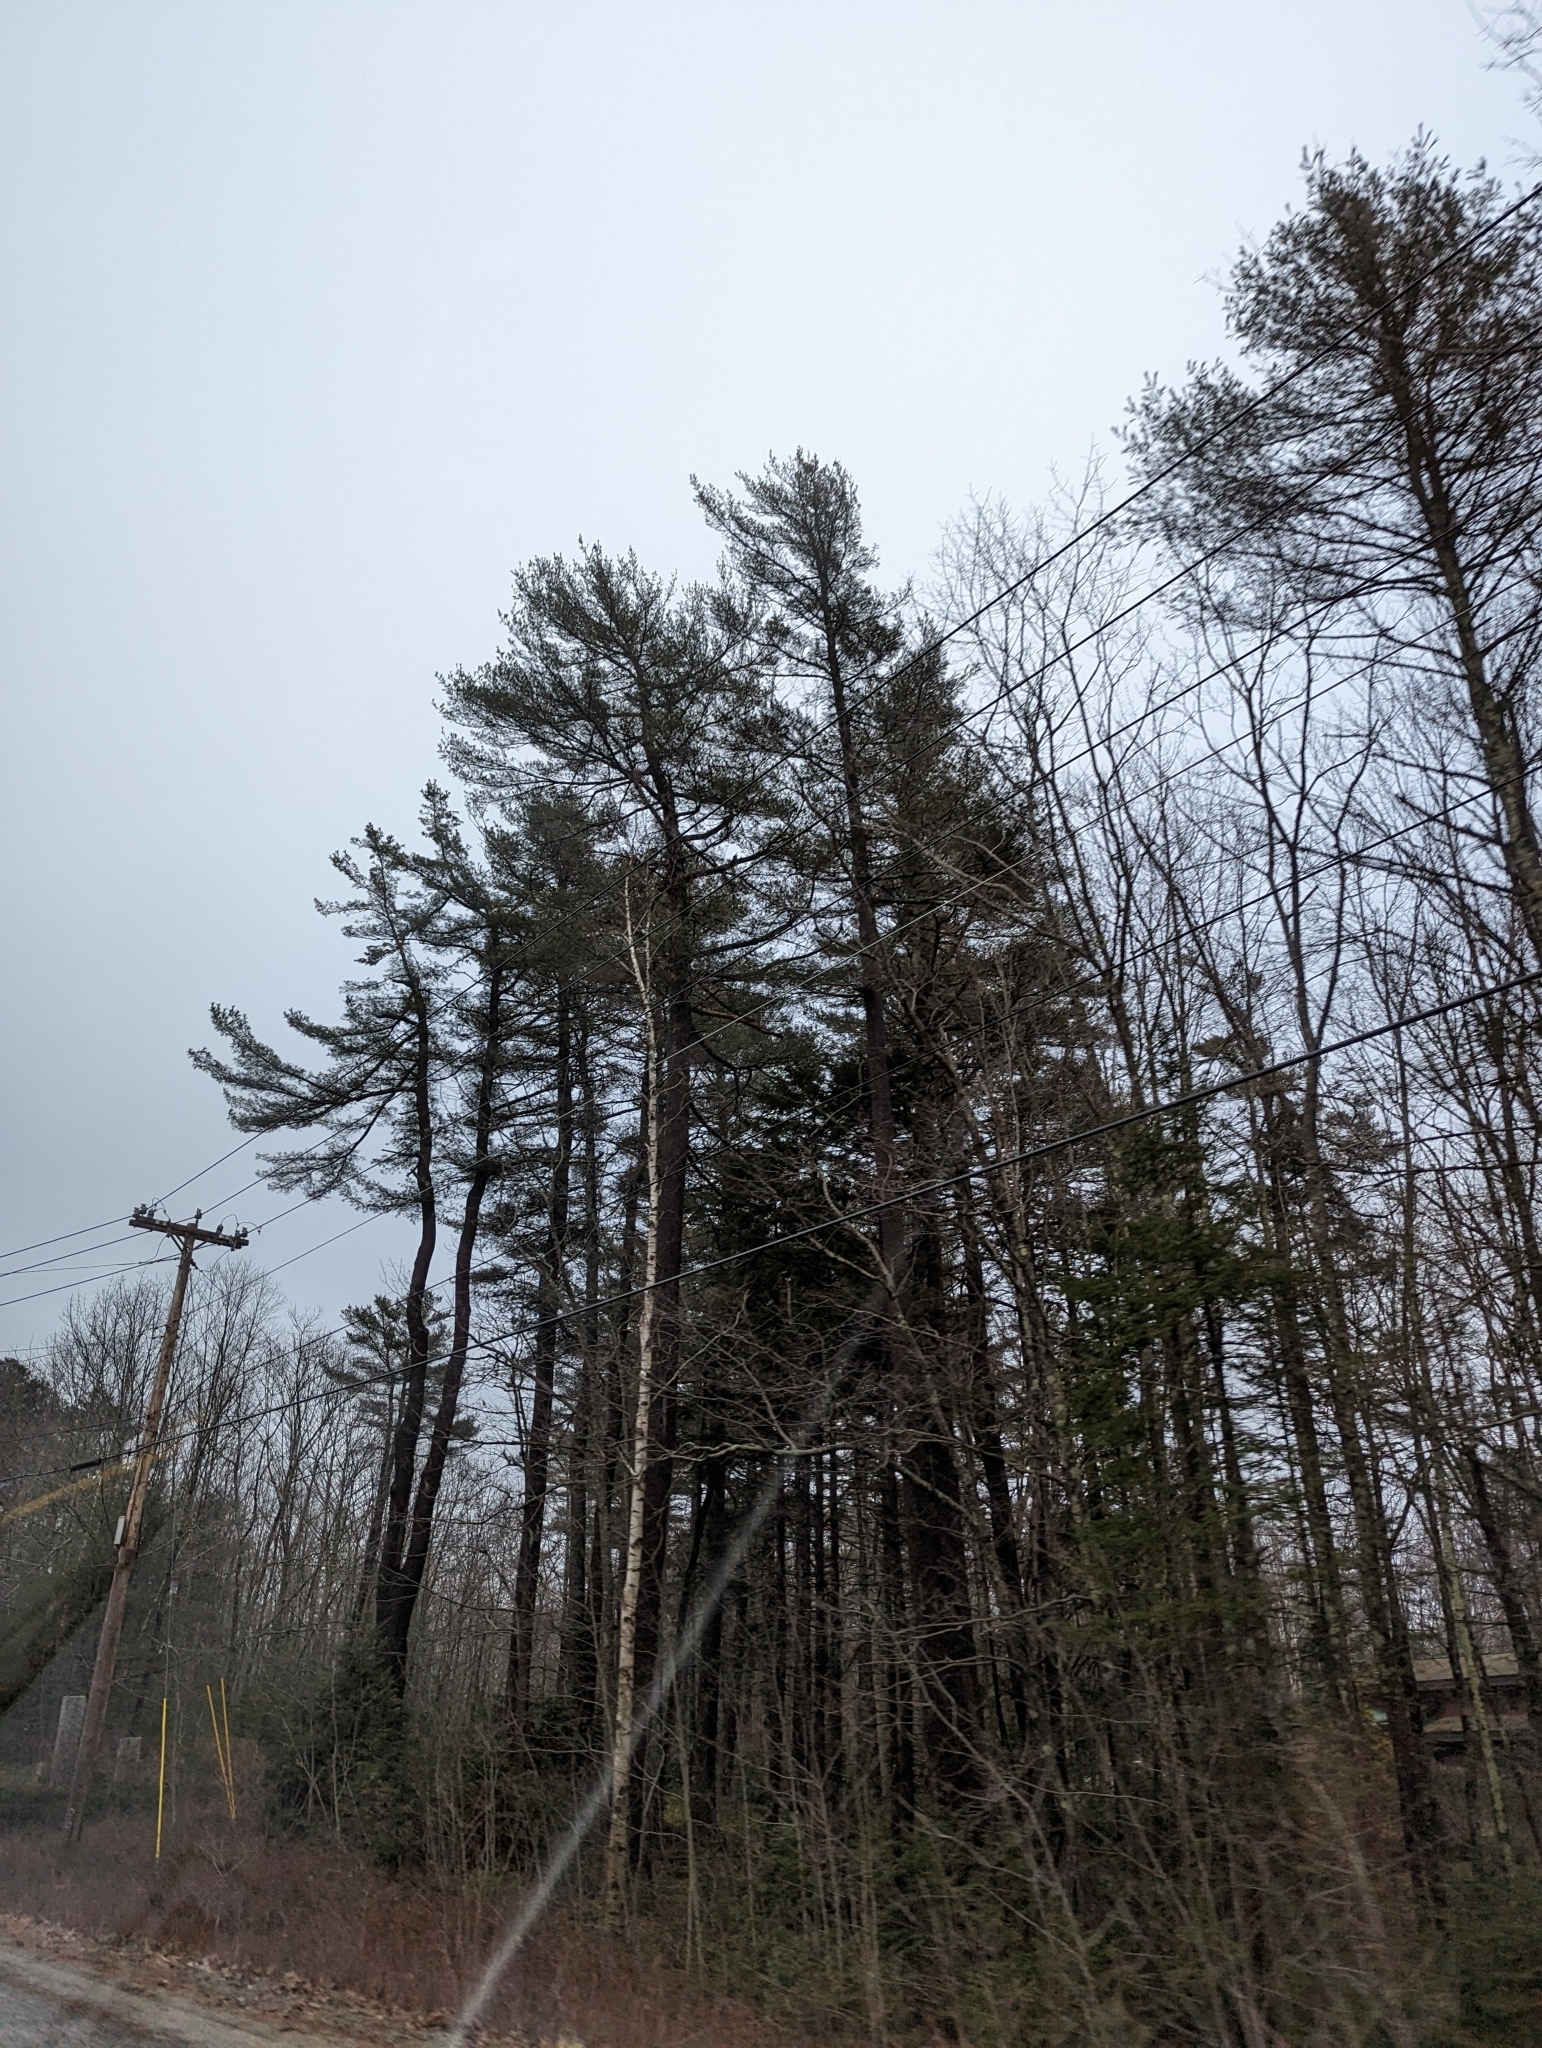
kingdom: Plantae
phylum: Tracheophyta
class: Pinopsida
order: Pinales
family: Pinaceae
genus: Pinus
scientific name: Pinus strobus
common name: Weymouth pine
